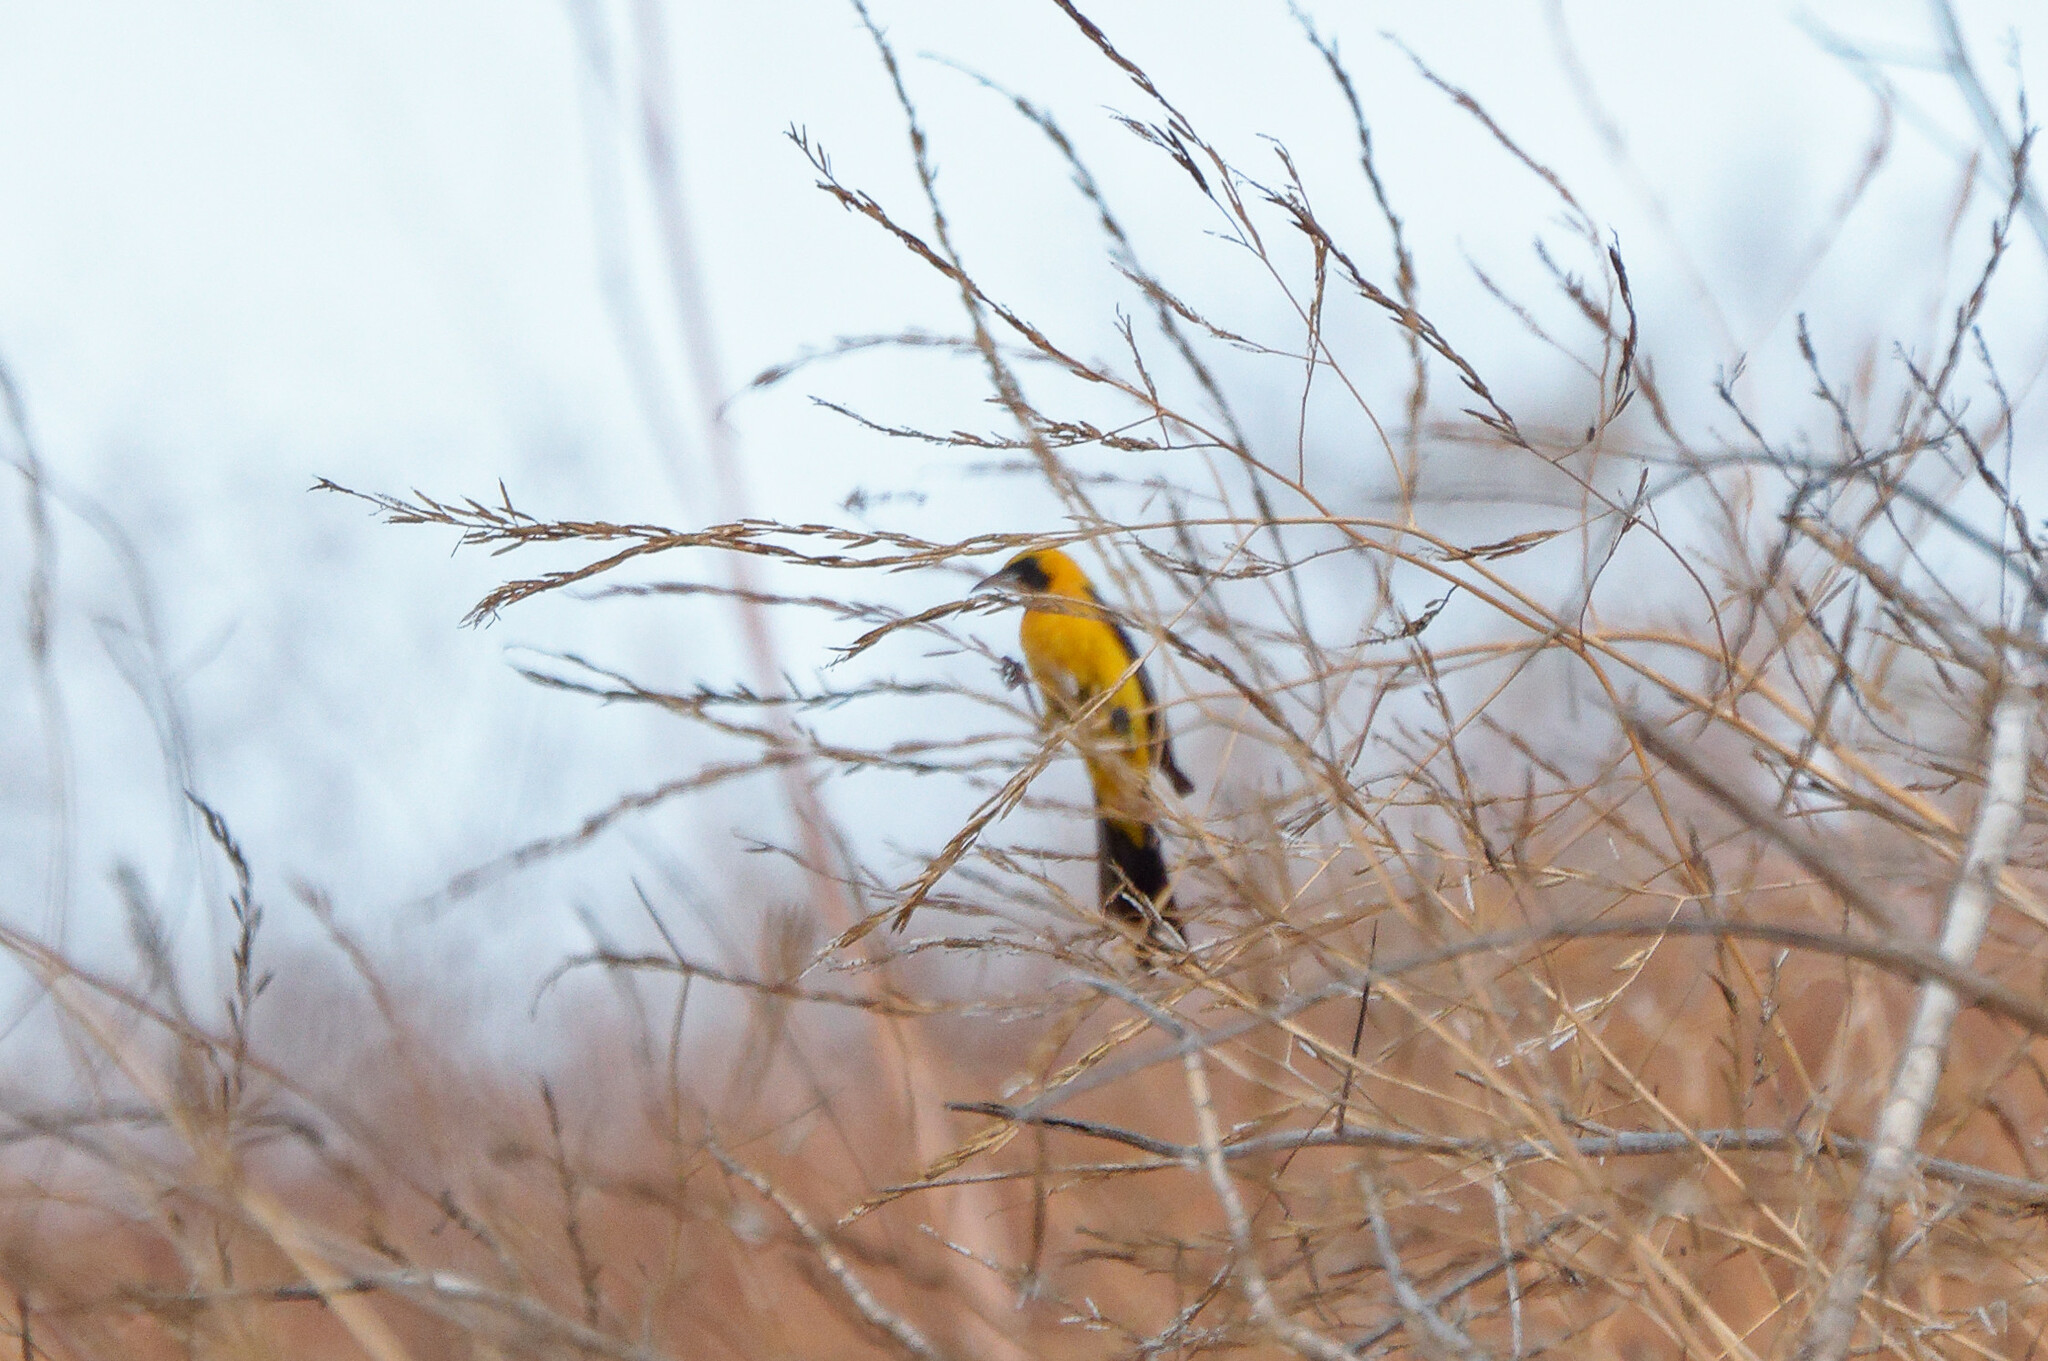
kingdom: Animalia
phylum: Chordata
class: Aves
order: Passeriformes
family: Icteridae
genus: Icterus
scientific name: Icterus cucullatus
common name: Hooded oriole
